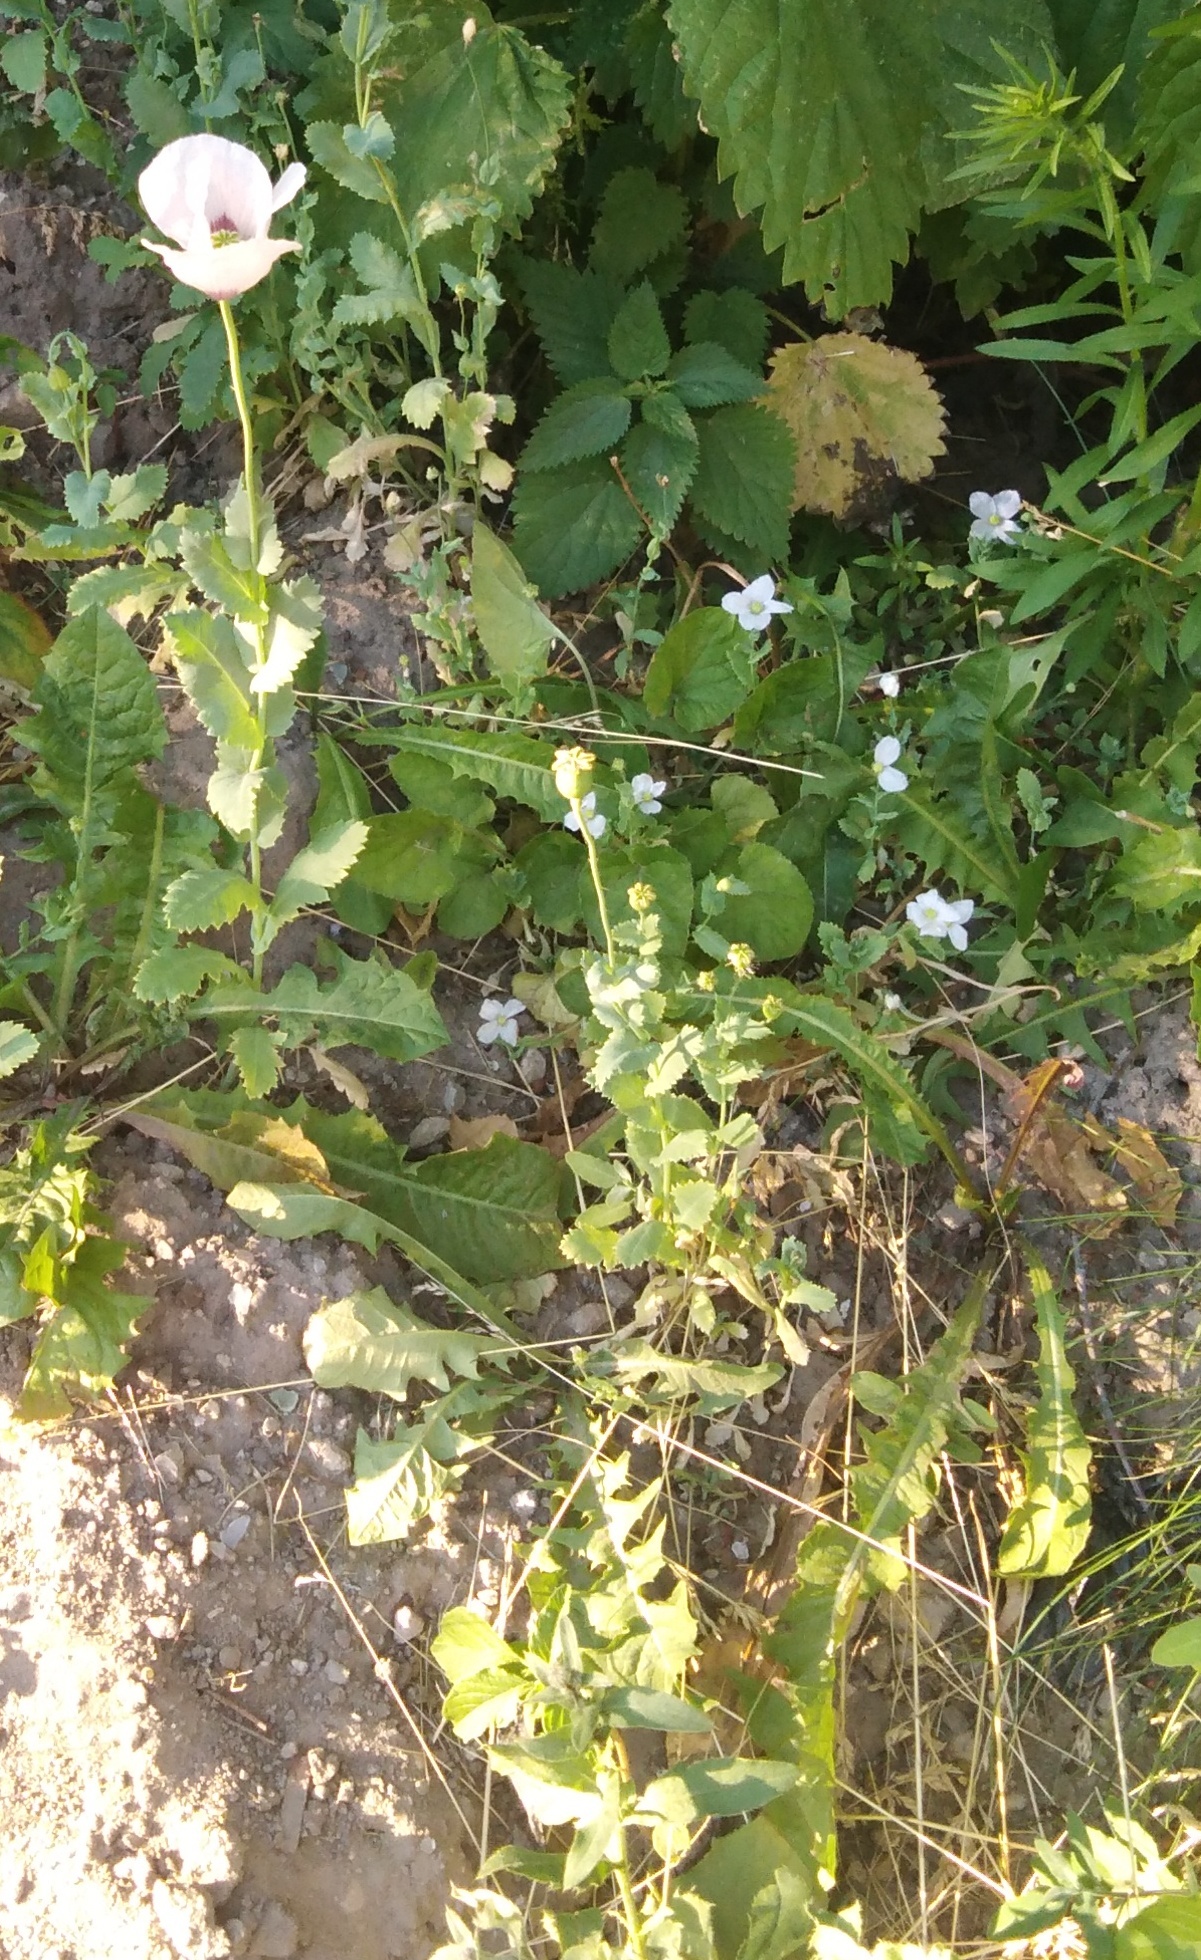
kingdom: Plantae
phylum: Tracheophyta
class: Magnoliopsida
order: Ranunculales
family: Papaveraceae
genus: Papaver
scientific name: Papaver somniferum
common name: Opium poppy
